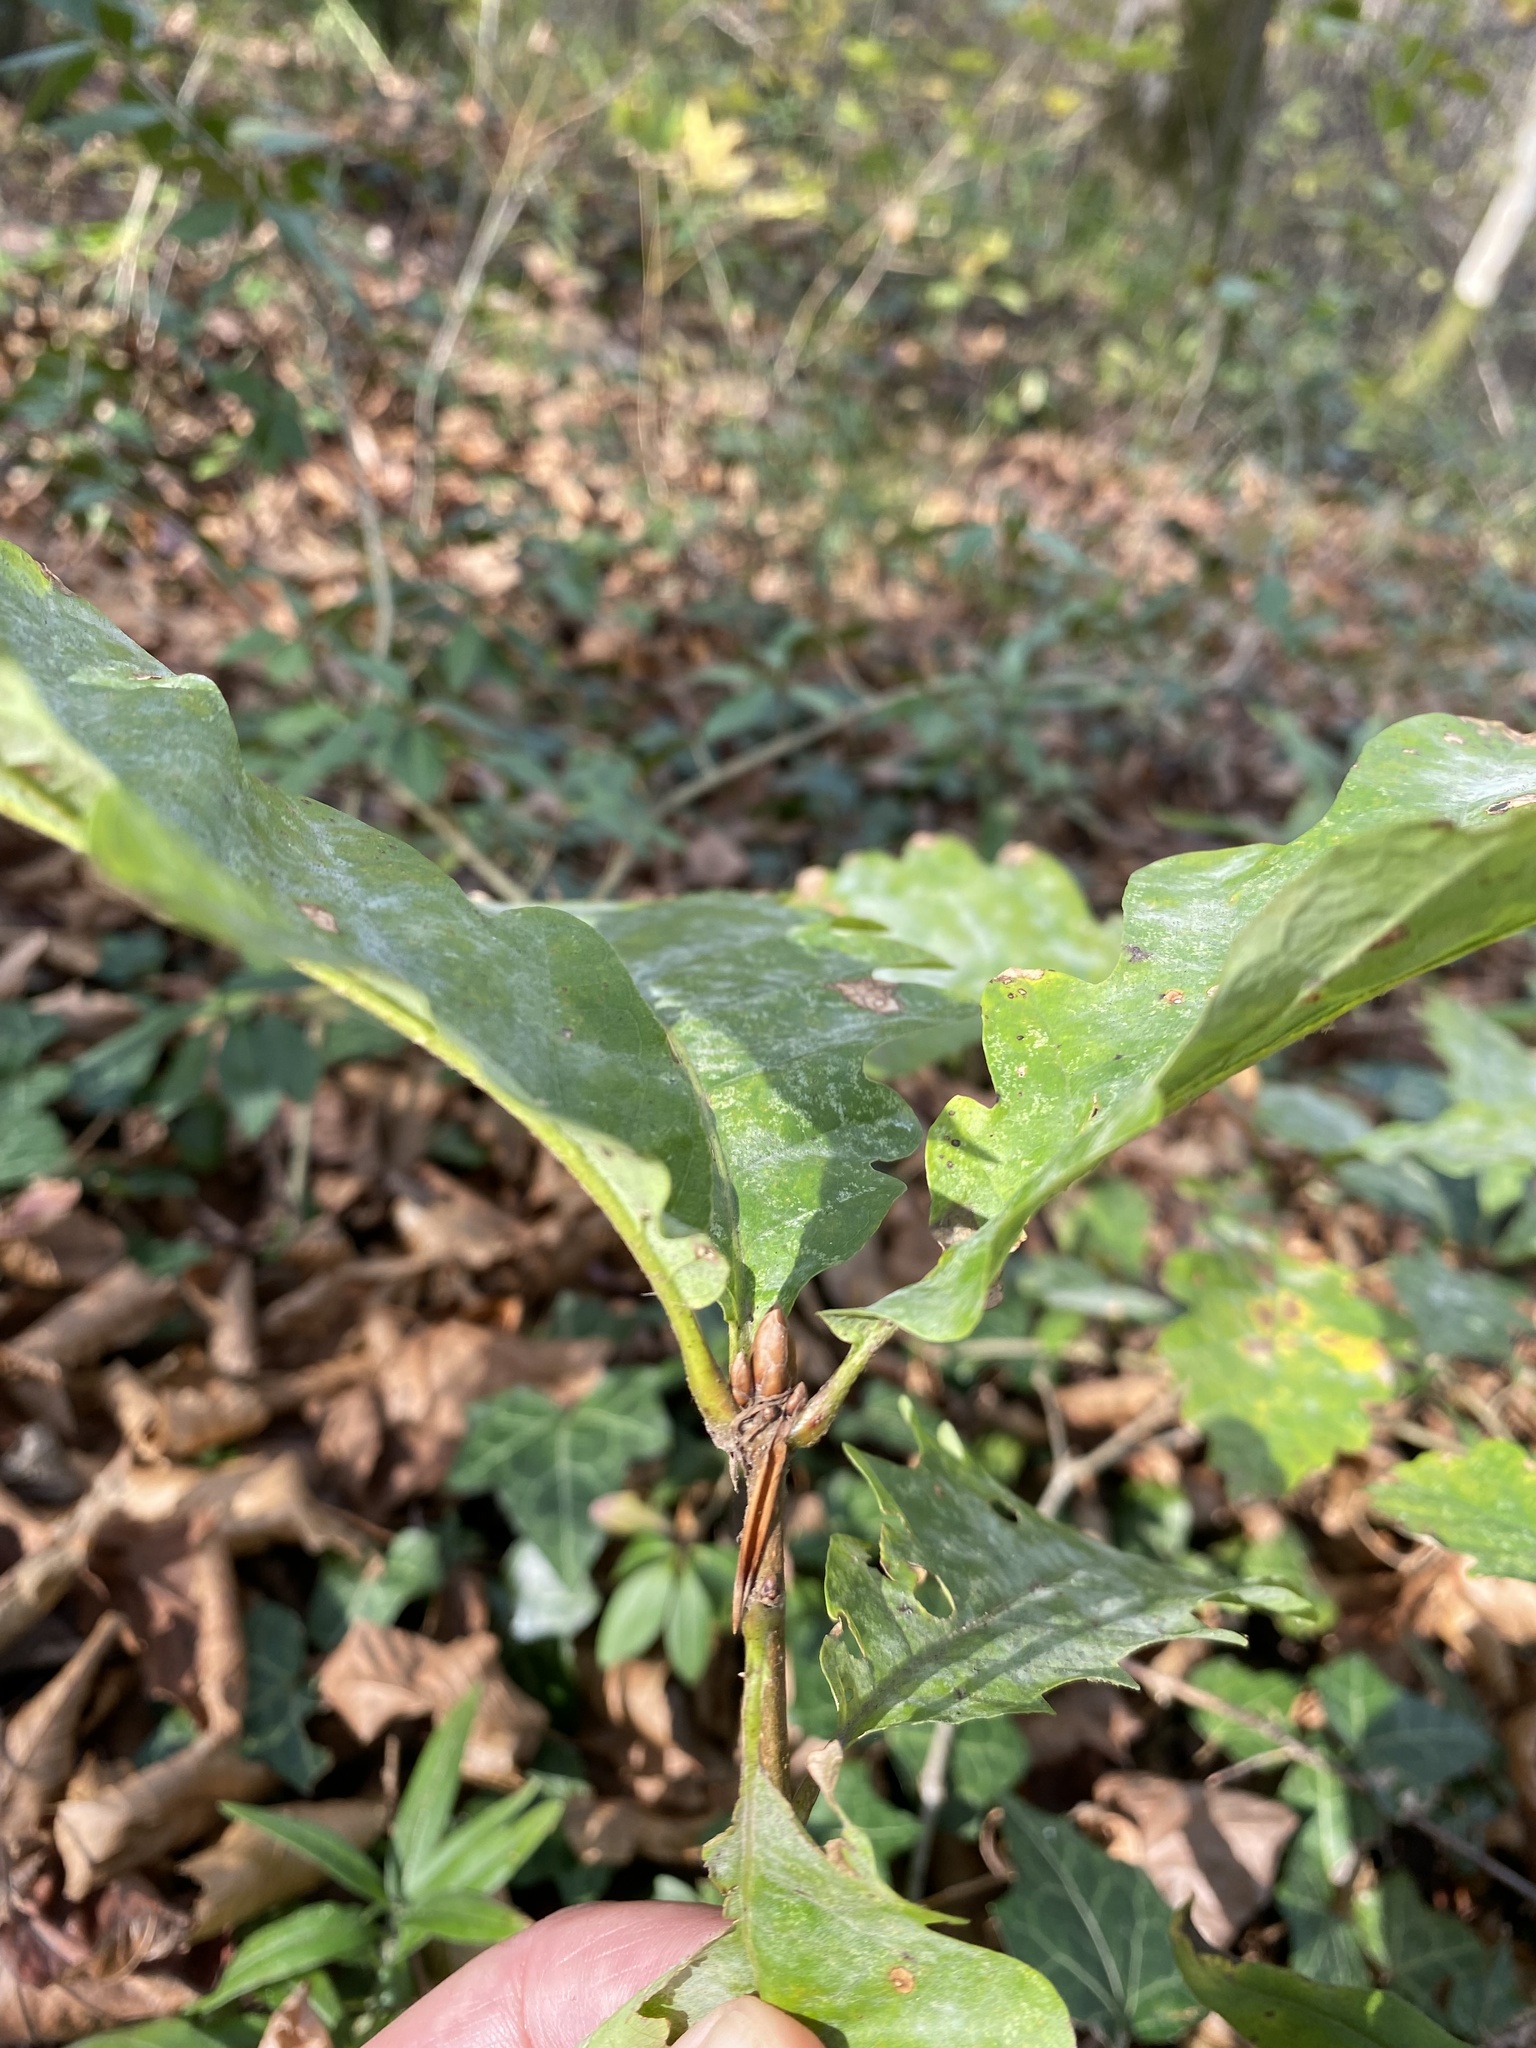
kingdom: Plantae
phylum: Tracheophyta
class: Magnoliopsida
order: Fagales
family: Fagaceae
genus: Quercus
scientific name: Quercus petraea
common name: Sessile oak
